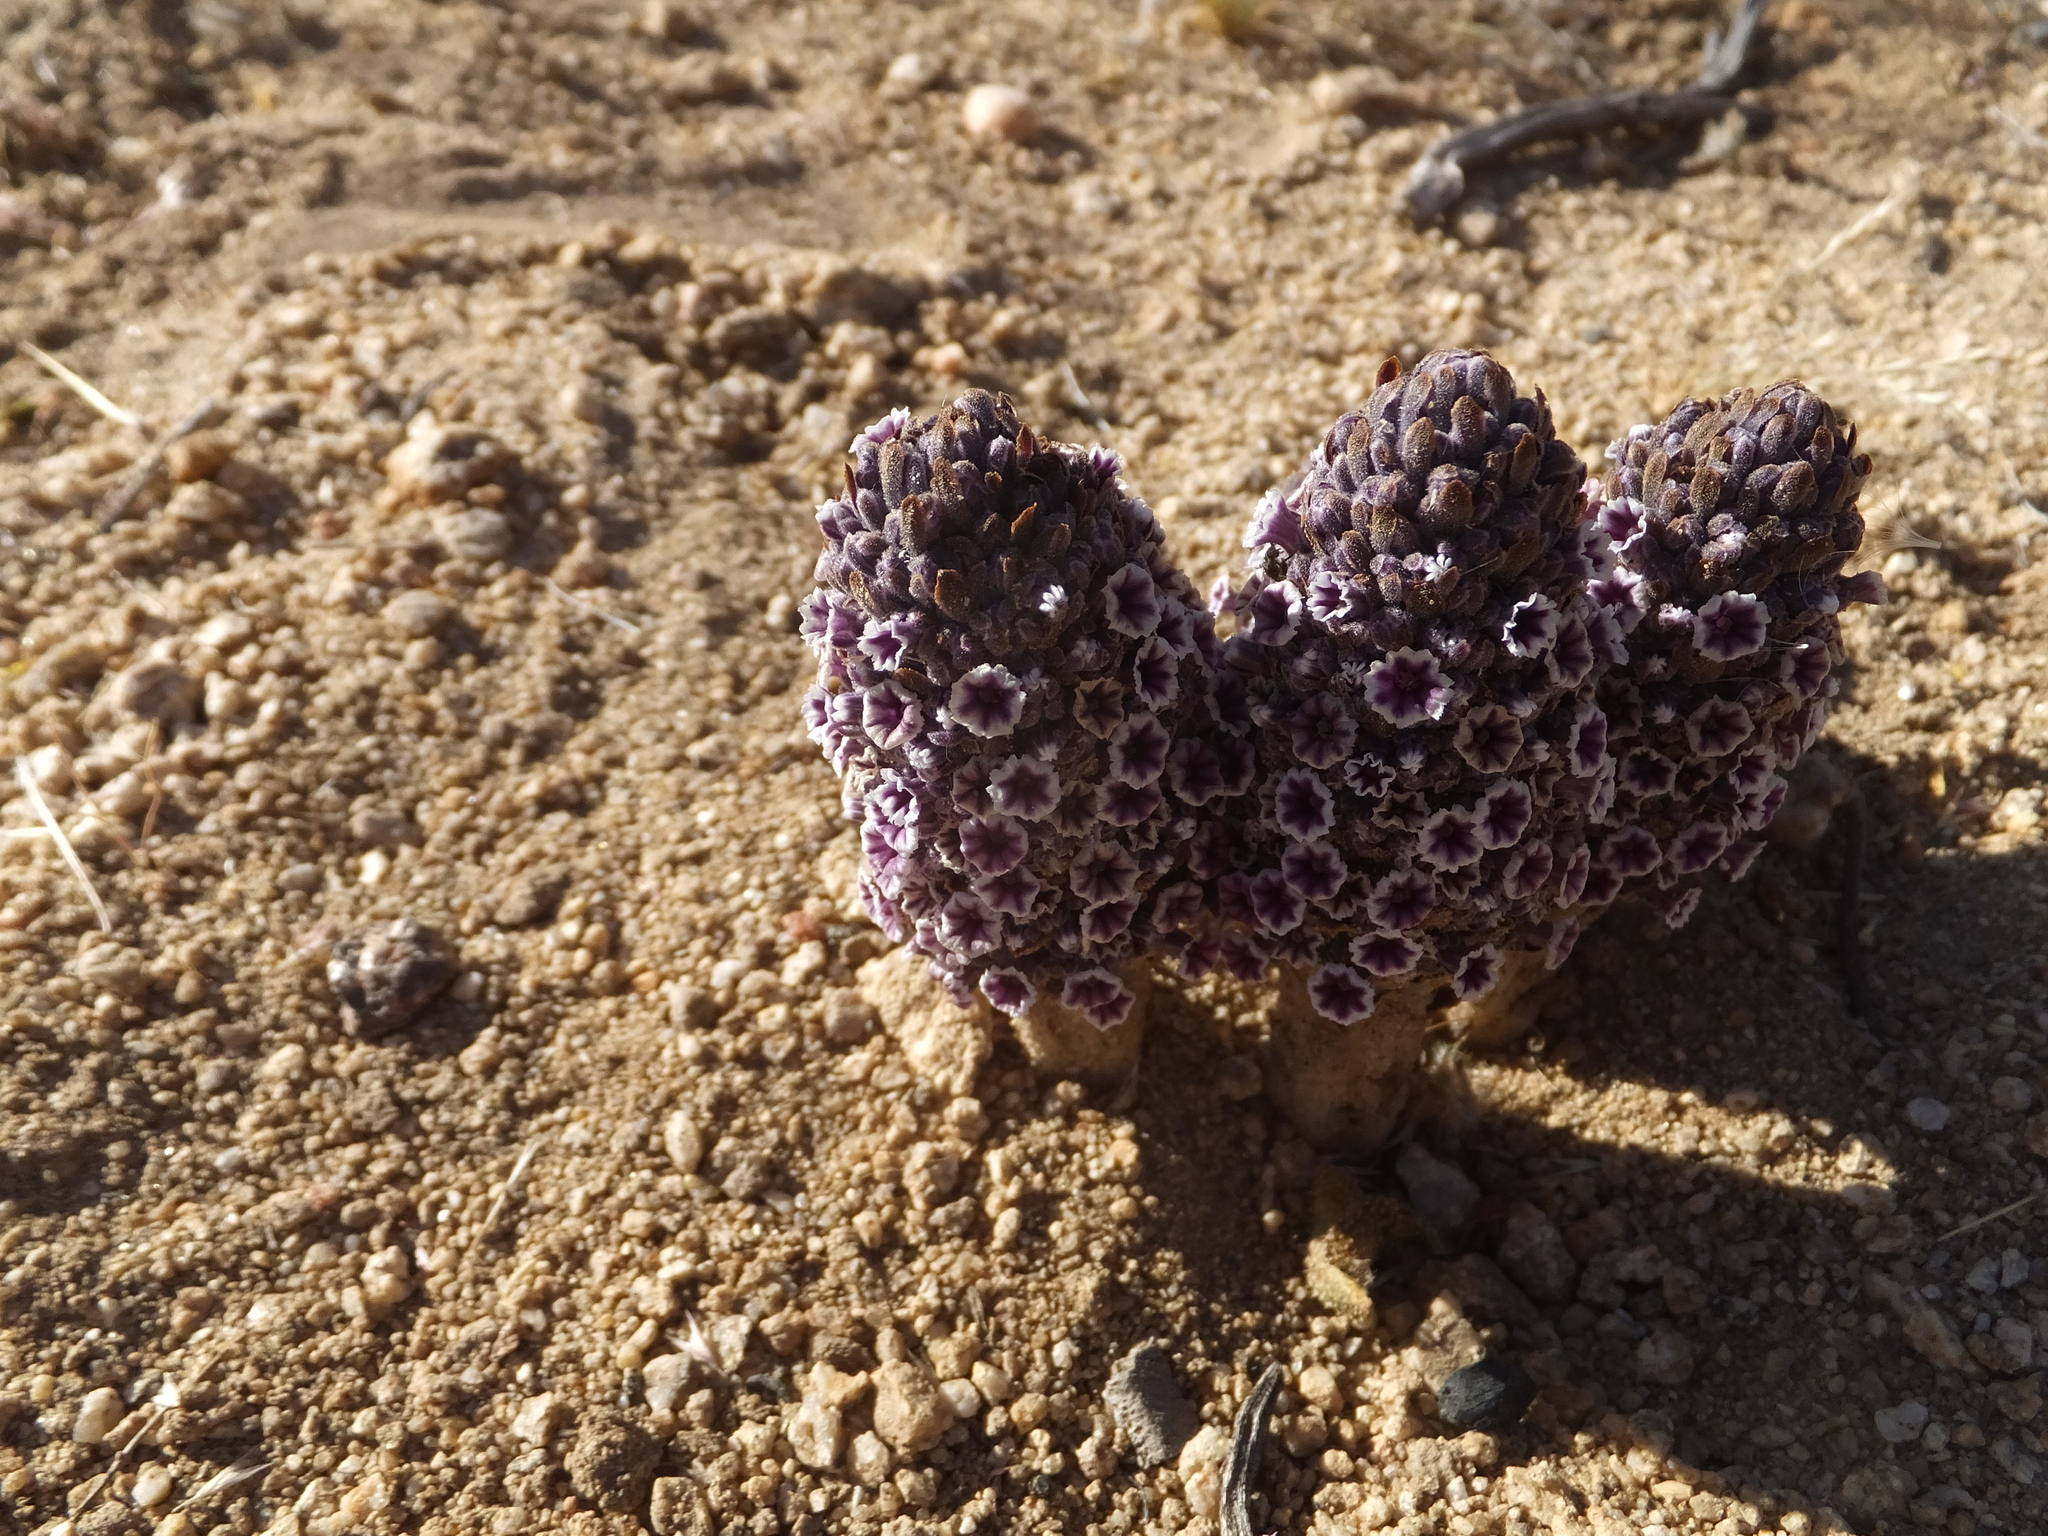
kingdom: Plantae
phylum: Tracheophyta
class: Magnoliopsida
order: Boraginales
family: Lennoaceae
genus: Pholisma
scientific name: Pholisma arenarium
